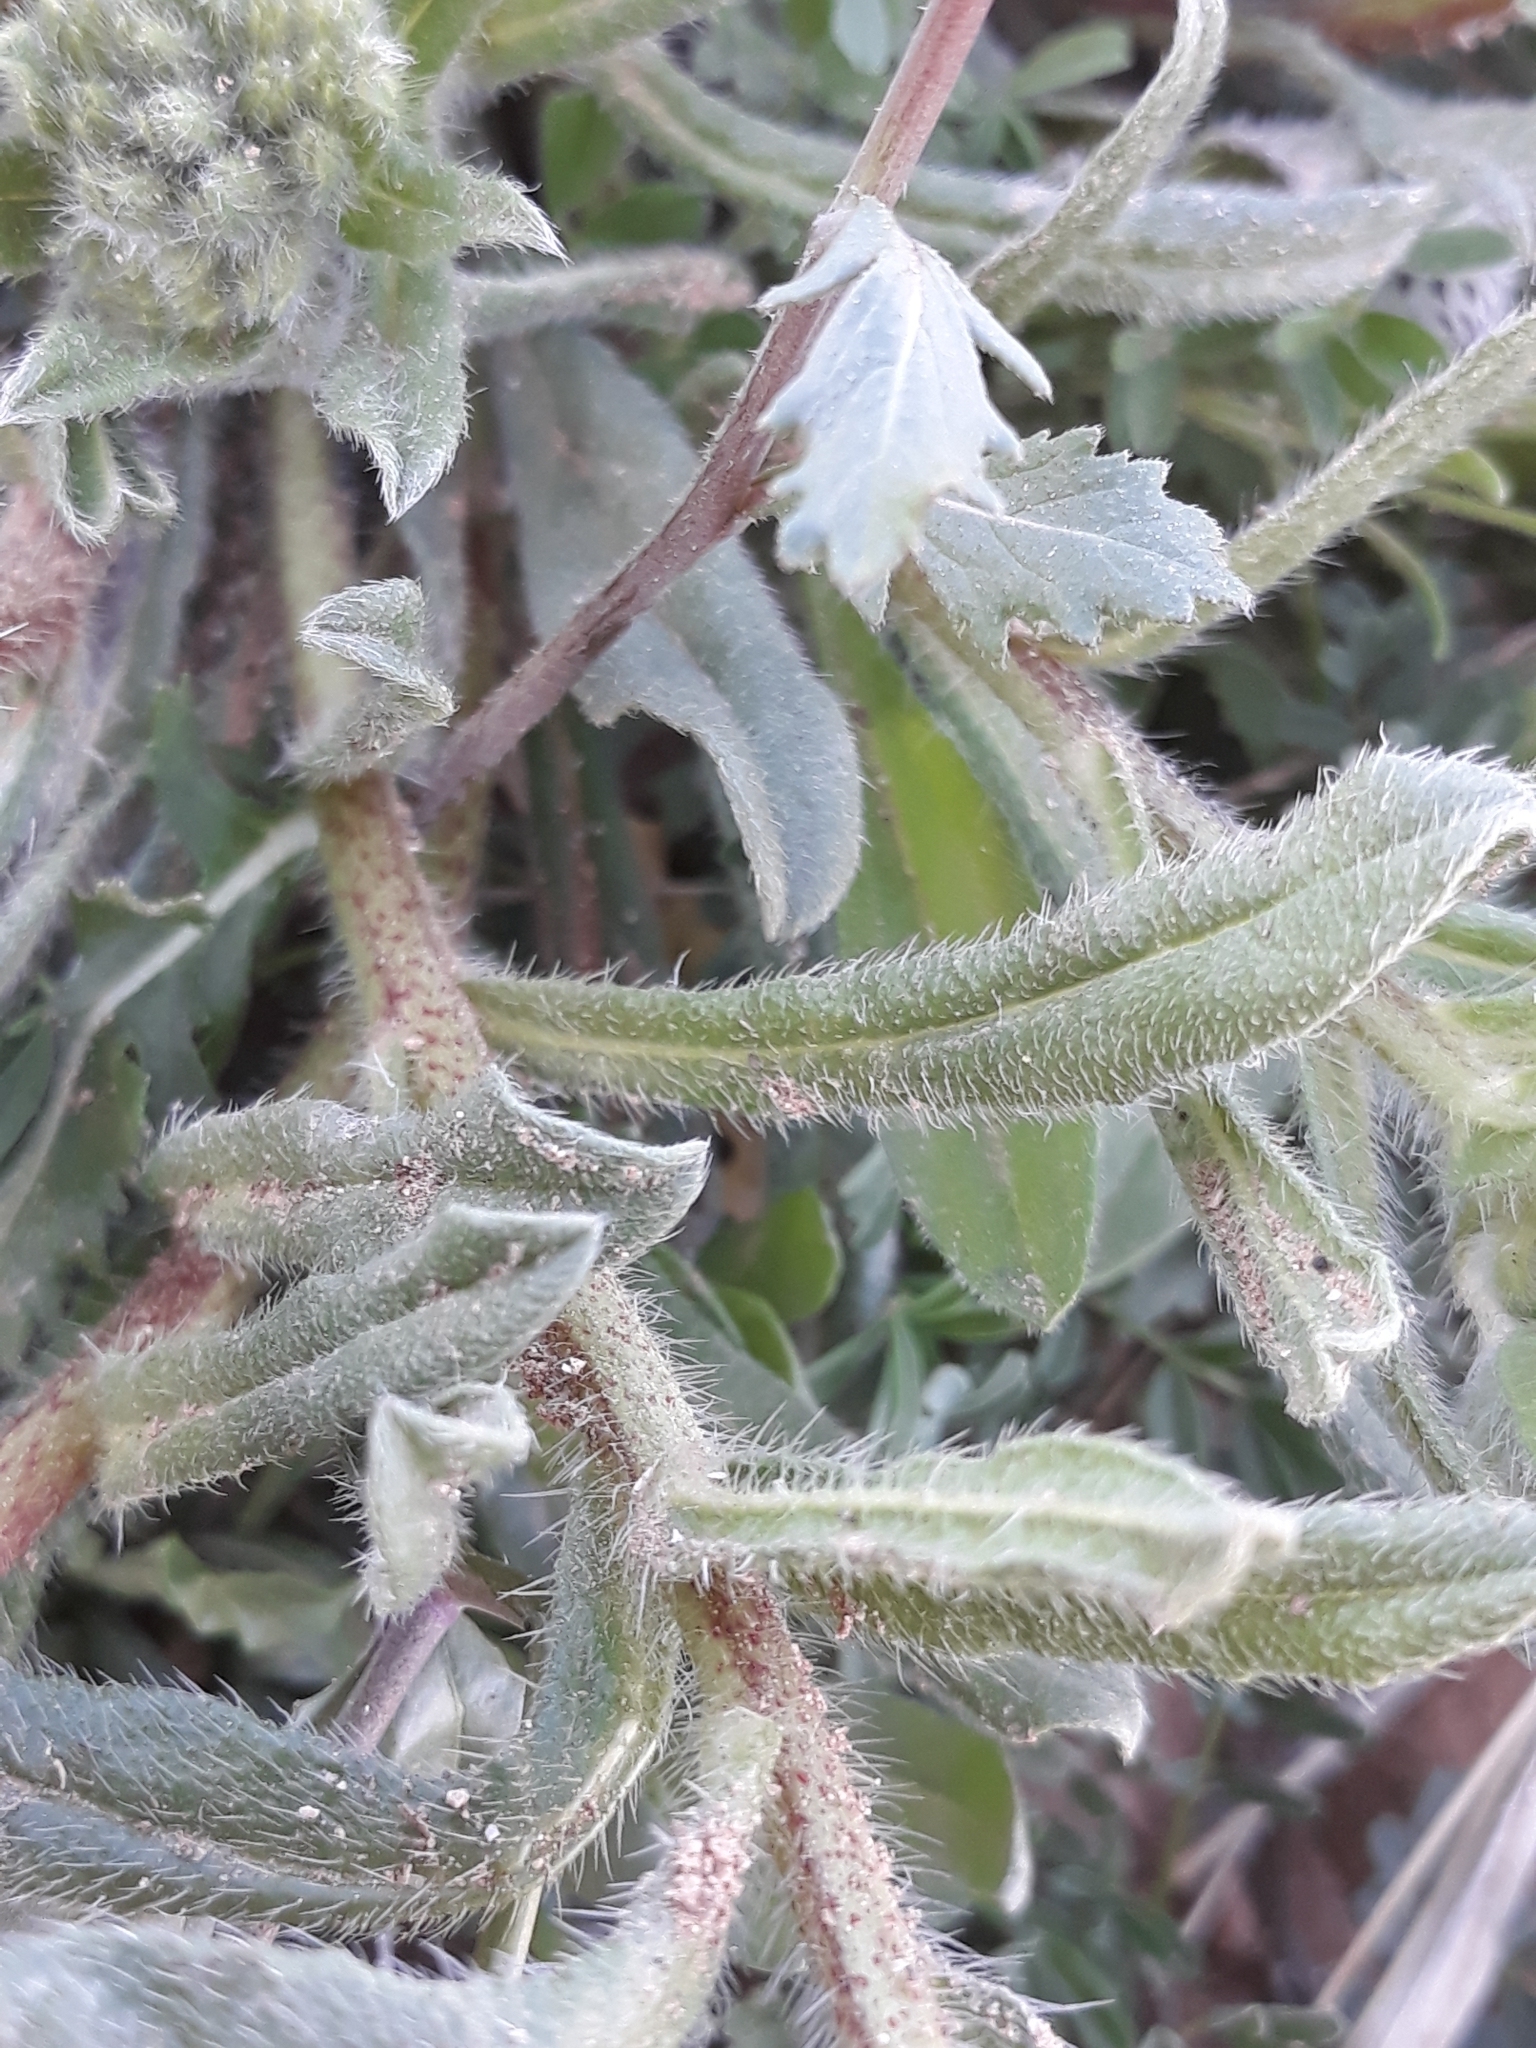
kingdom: Plantae
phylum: Tracheophyta
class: Magnoliopsida
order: Boraginales
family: Boraginaceae
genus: Echium
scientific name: Echium sabulicola
